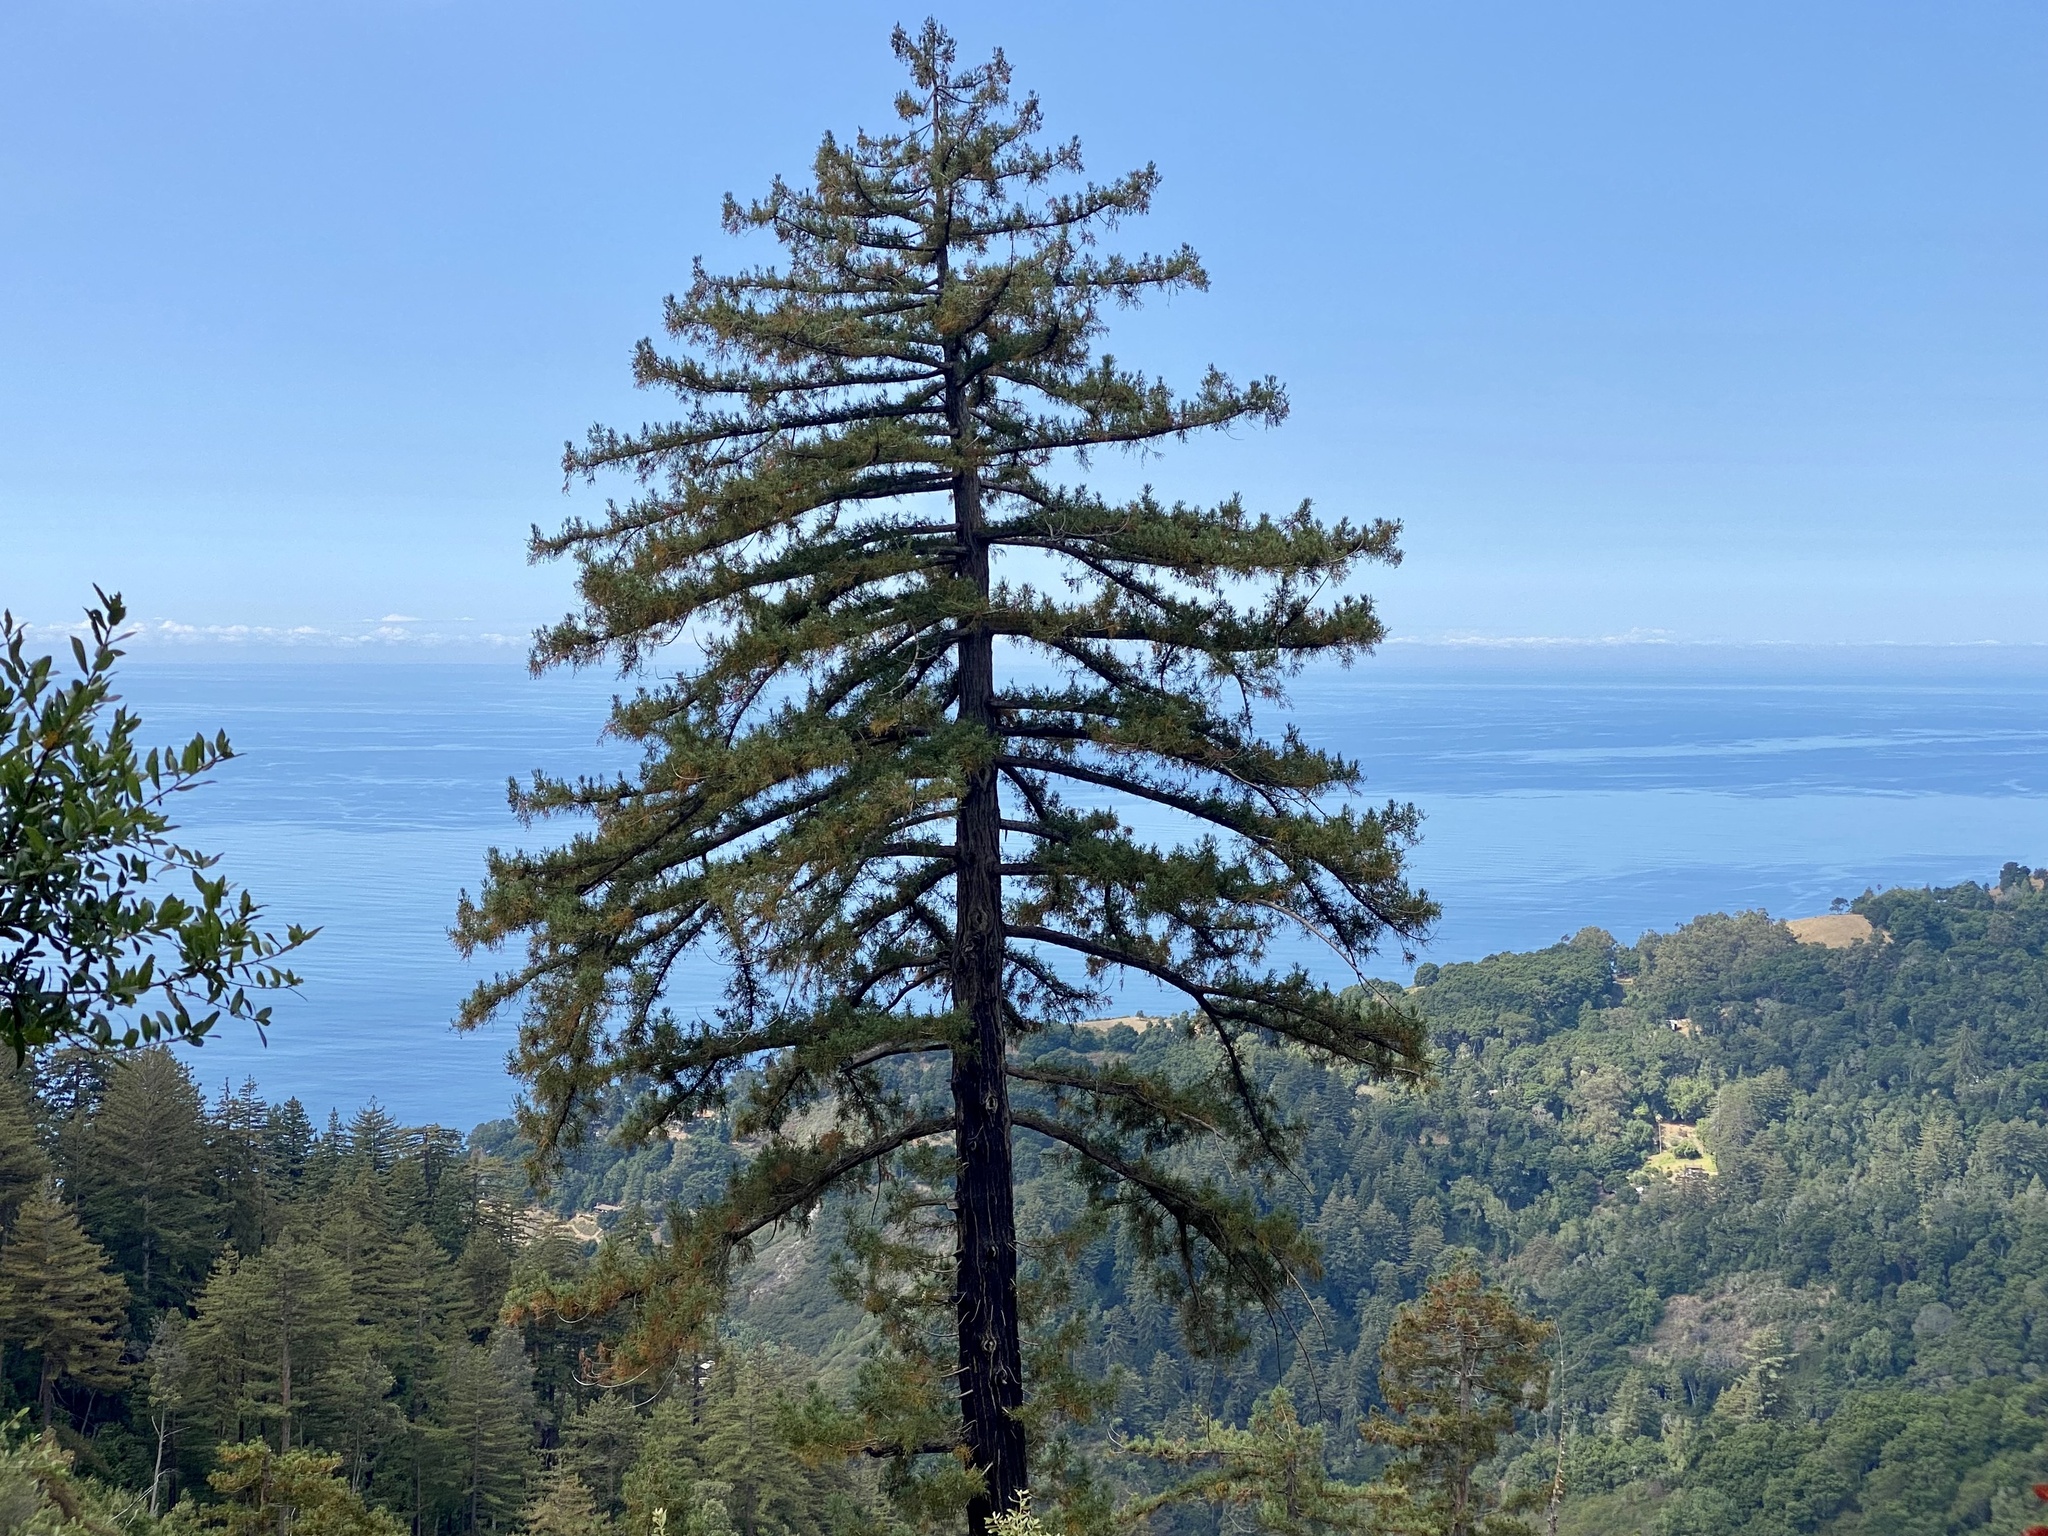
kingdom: Plantae
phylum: Tracheophyta
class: Pinopsida
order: Pinales
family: Cupressaceae
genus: Sequoia
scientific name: Sequoia sempervirens
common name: Coast redwood
